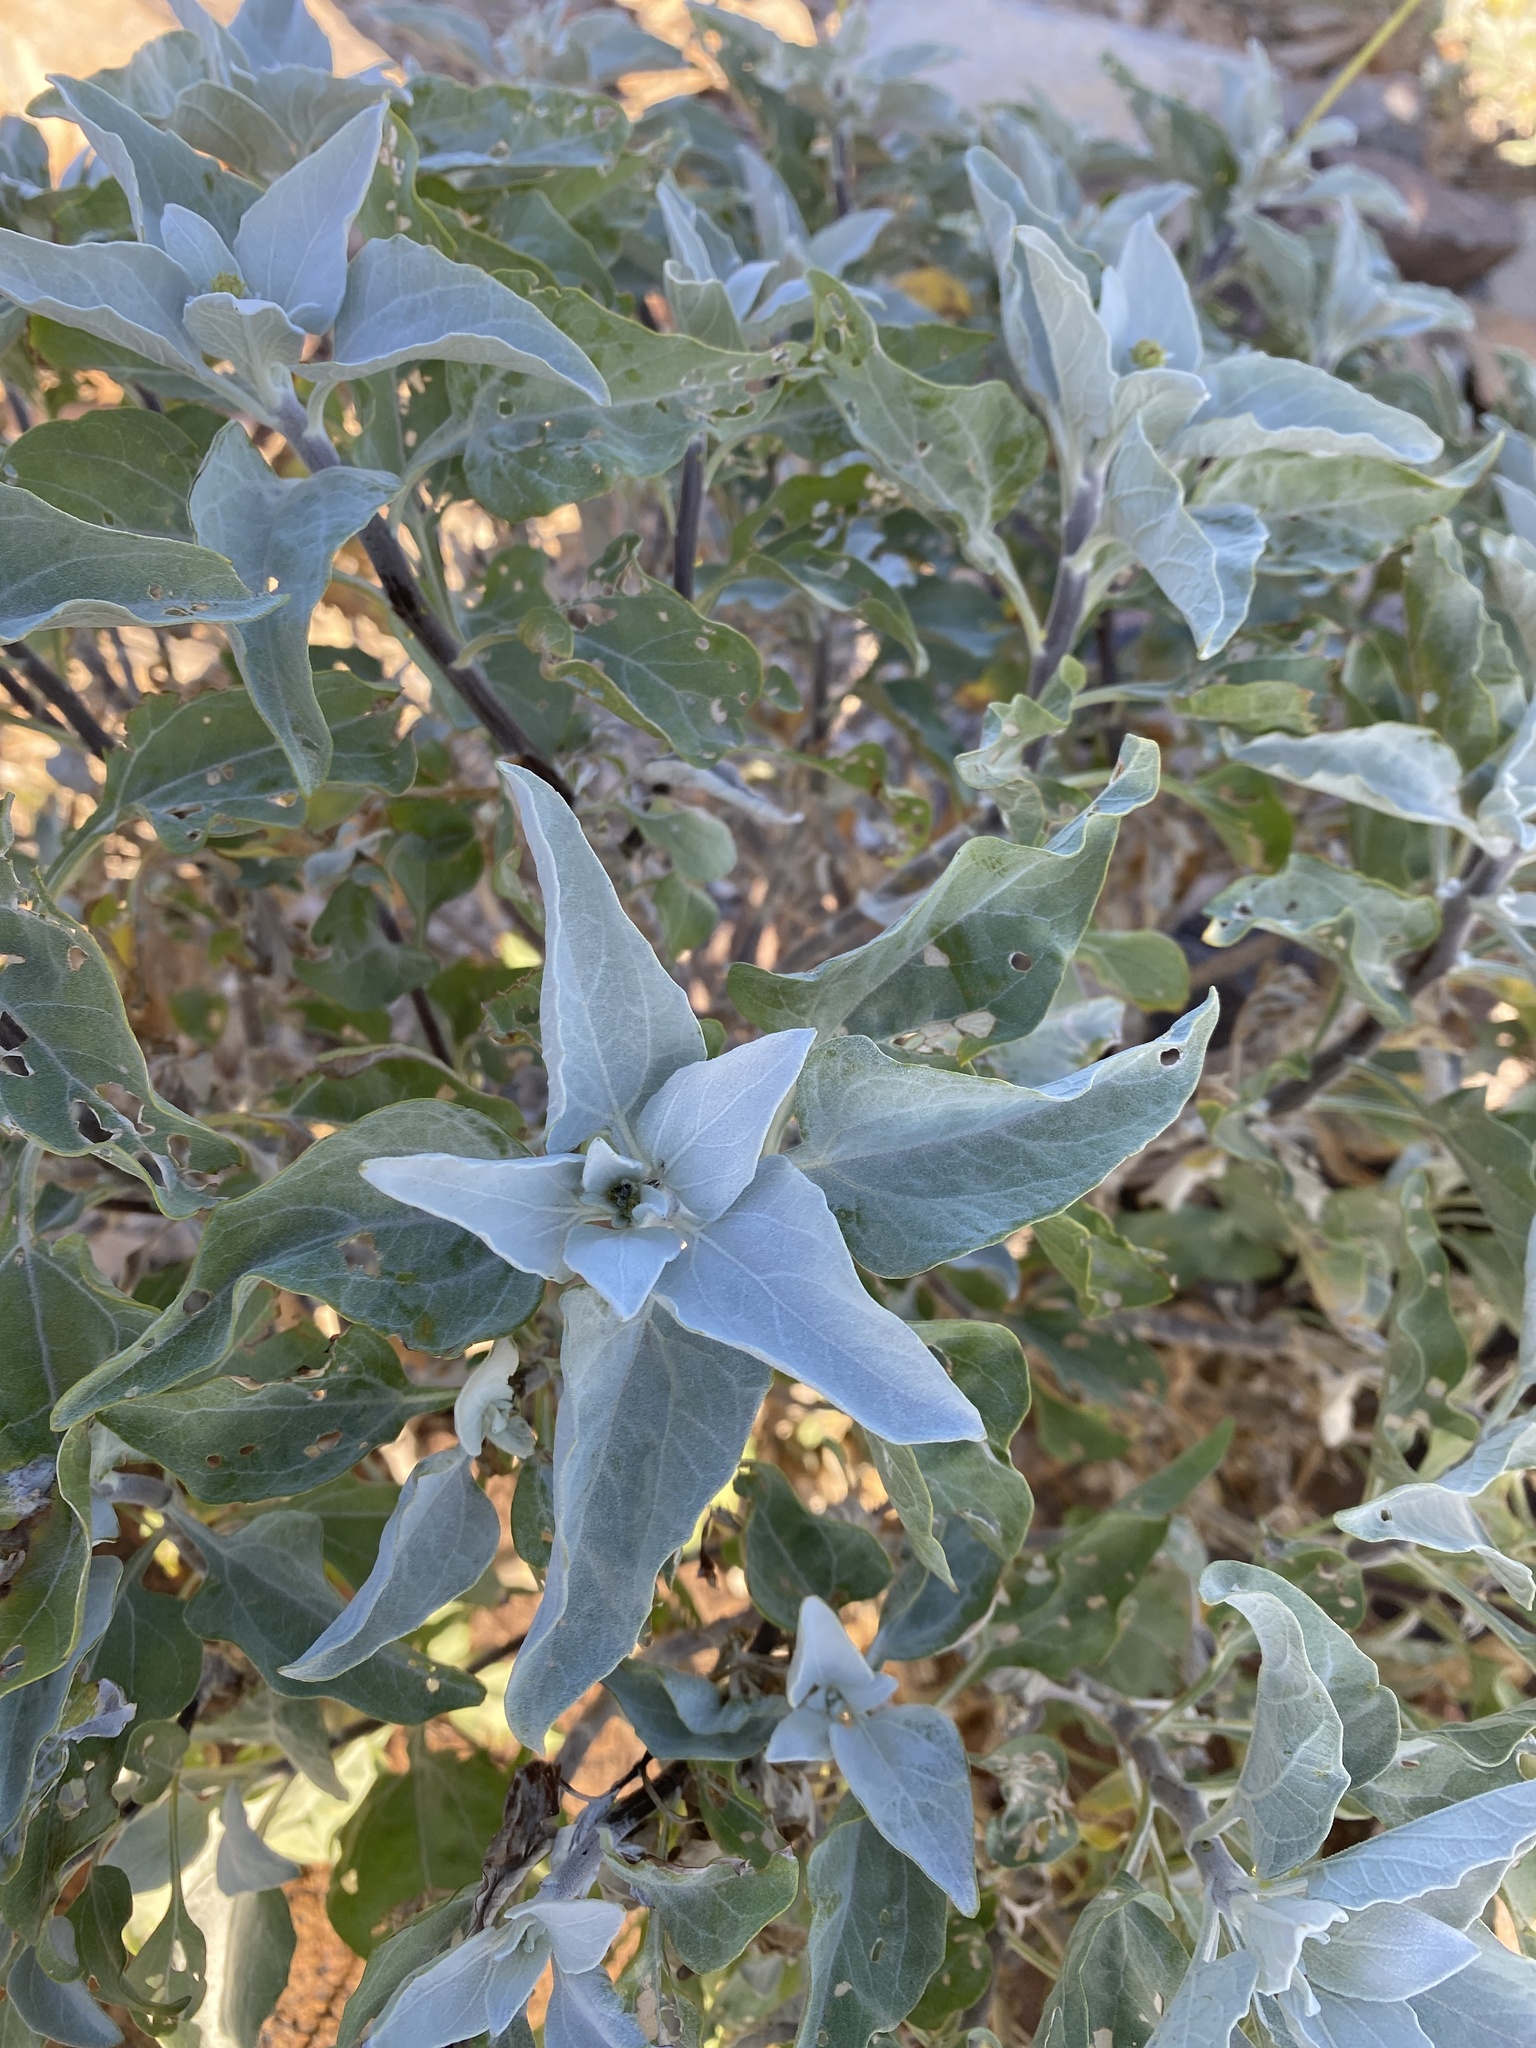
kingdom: Plantae
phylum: Tracheophyta
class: Magnoliopsida
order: Asterales
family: Asteraceae
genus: Encelia
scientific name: Encelia farinosa
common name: Brittlebush
